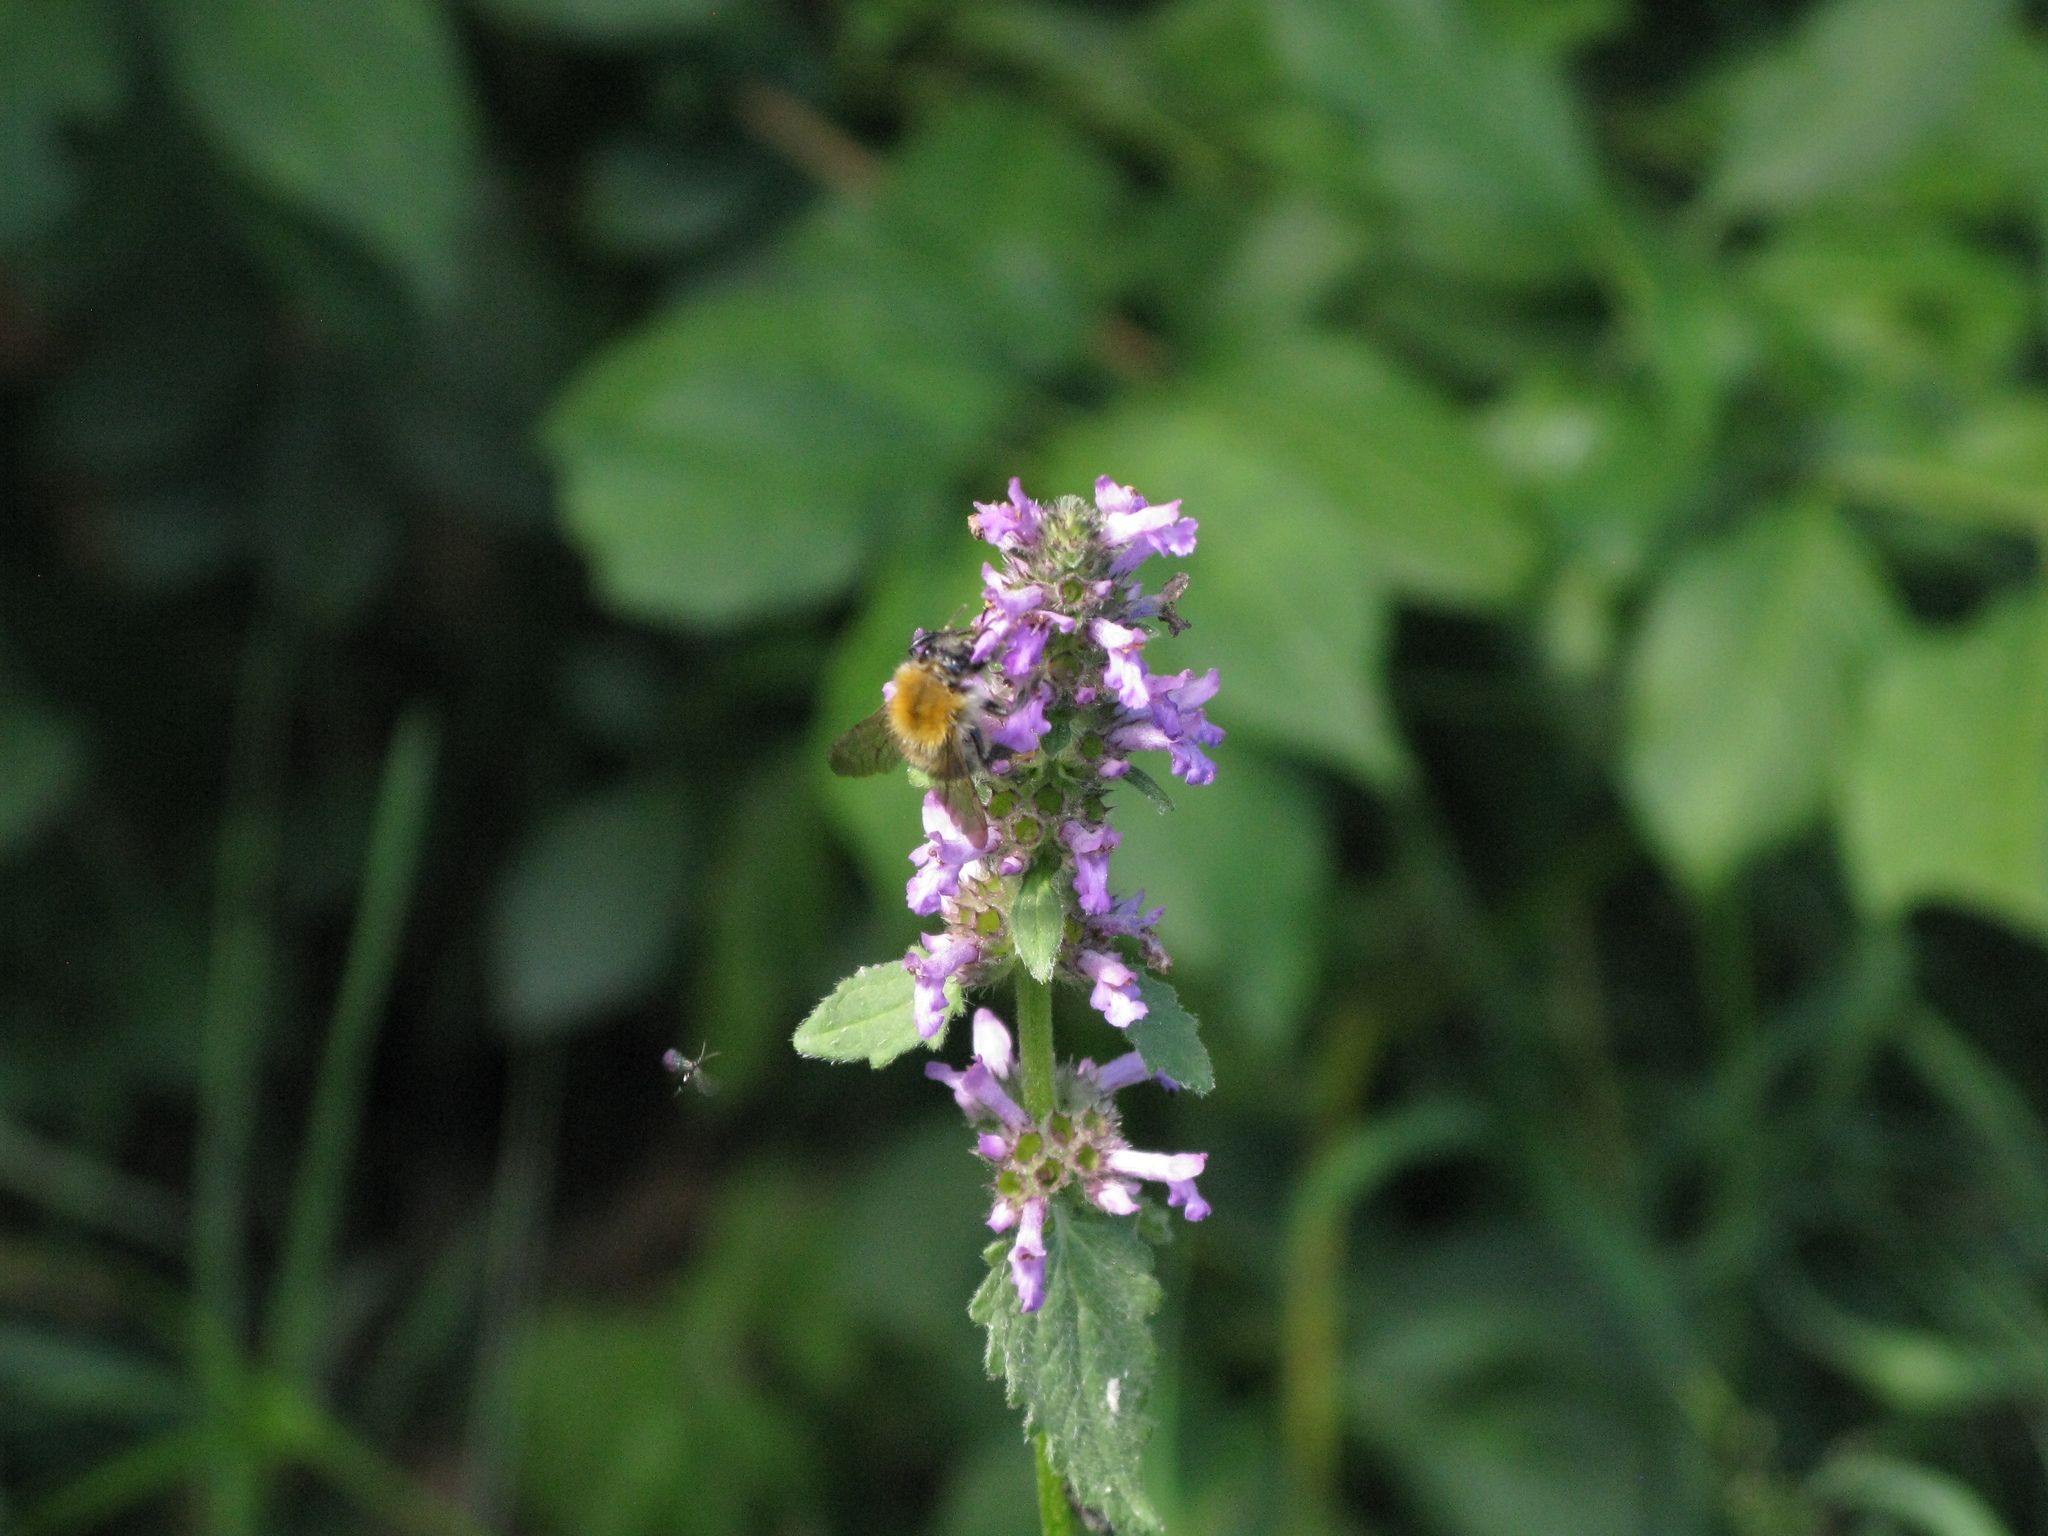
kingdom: Animalia
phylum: Arthropoda
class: Insecta
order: Hymenoptera
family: Apidae
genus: Bombus
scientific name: Bombus pascuorum
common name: Common carder bee
